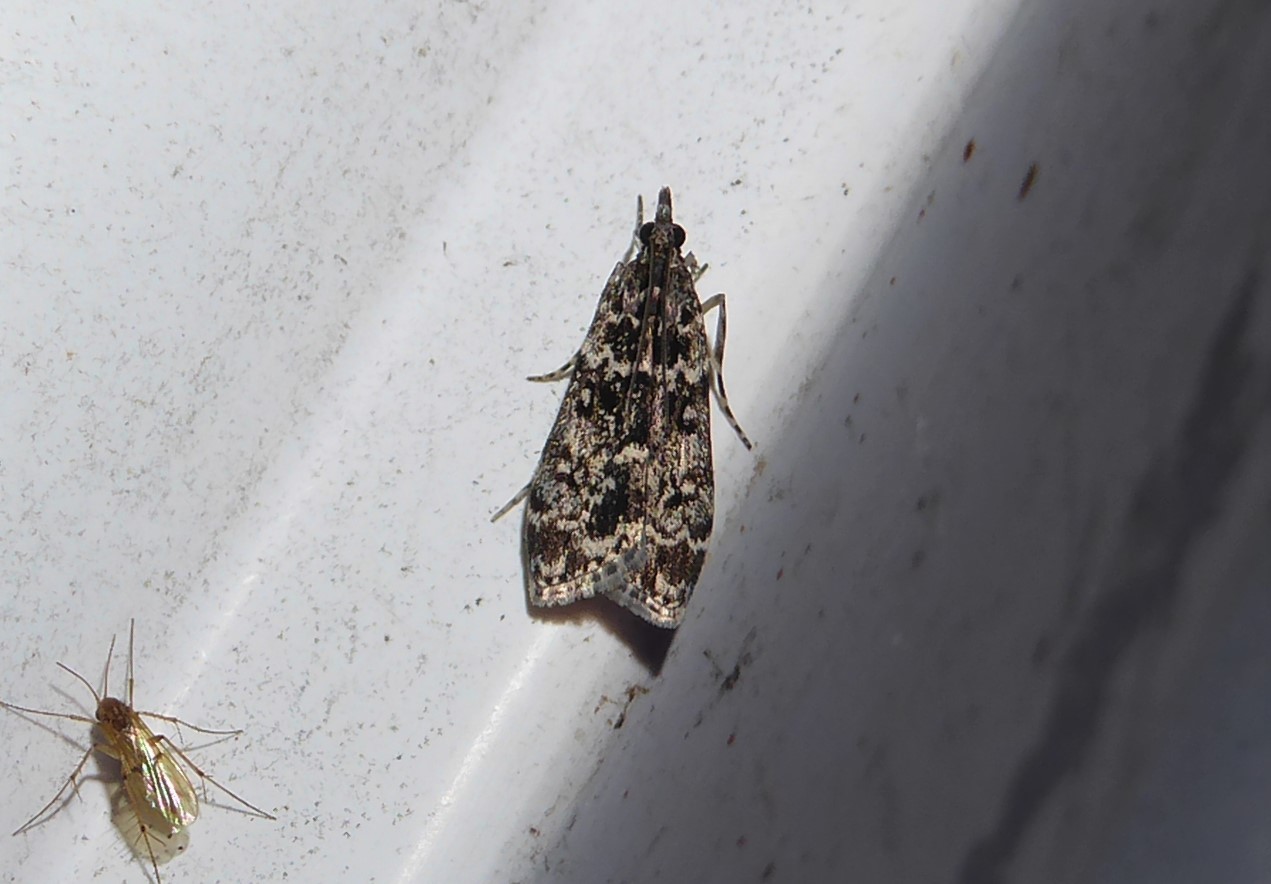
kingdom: Animalia
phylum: Arthropoda
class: Insecta
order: Lepidoptera
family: Crambidae
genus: Eudonia
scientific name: Eudonia philerga
